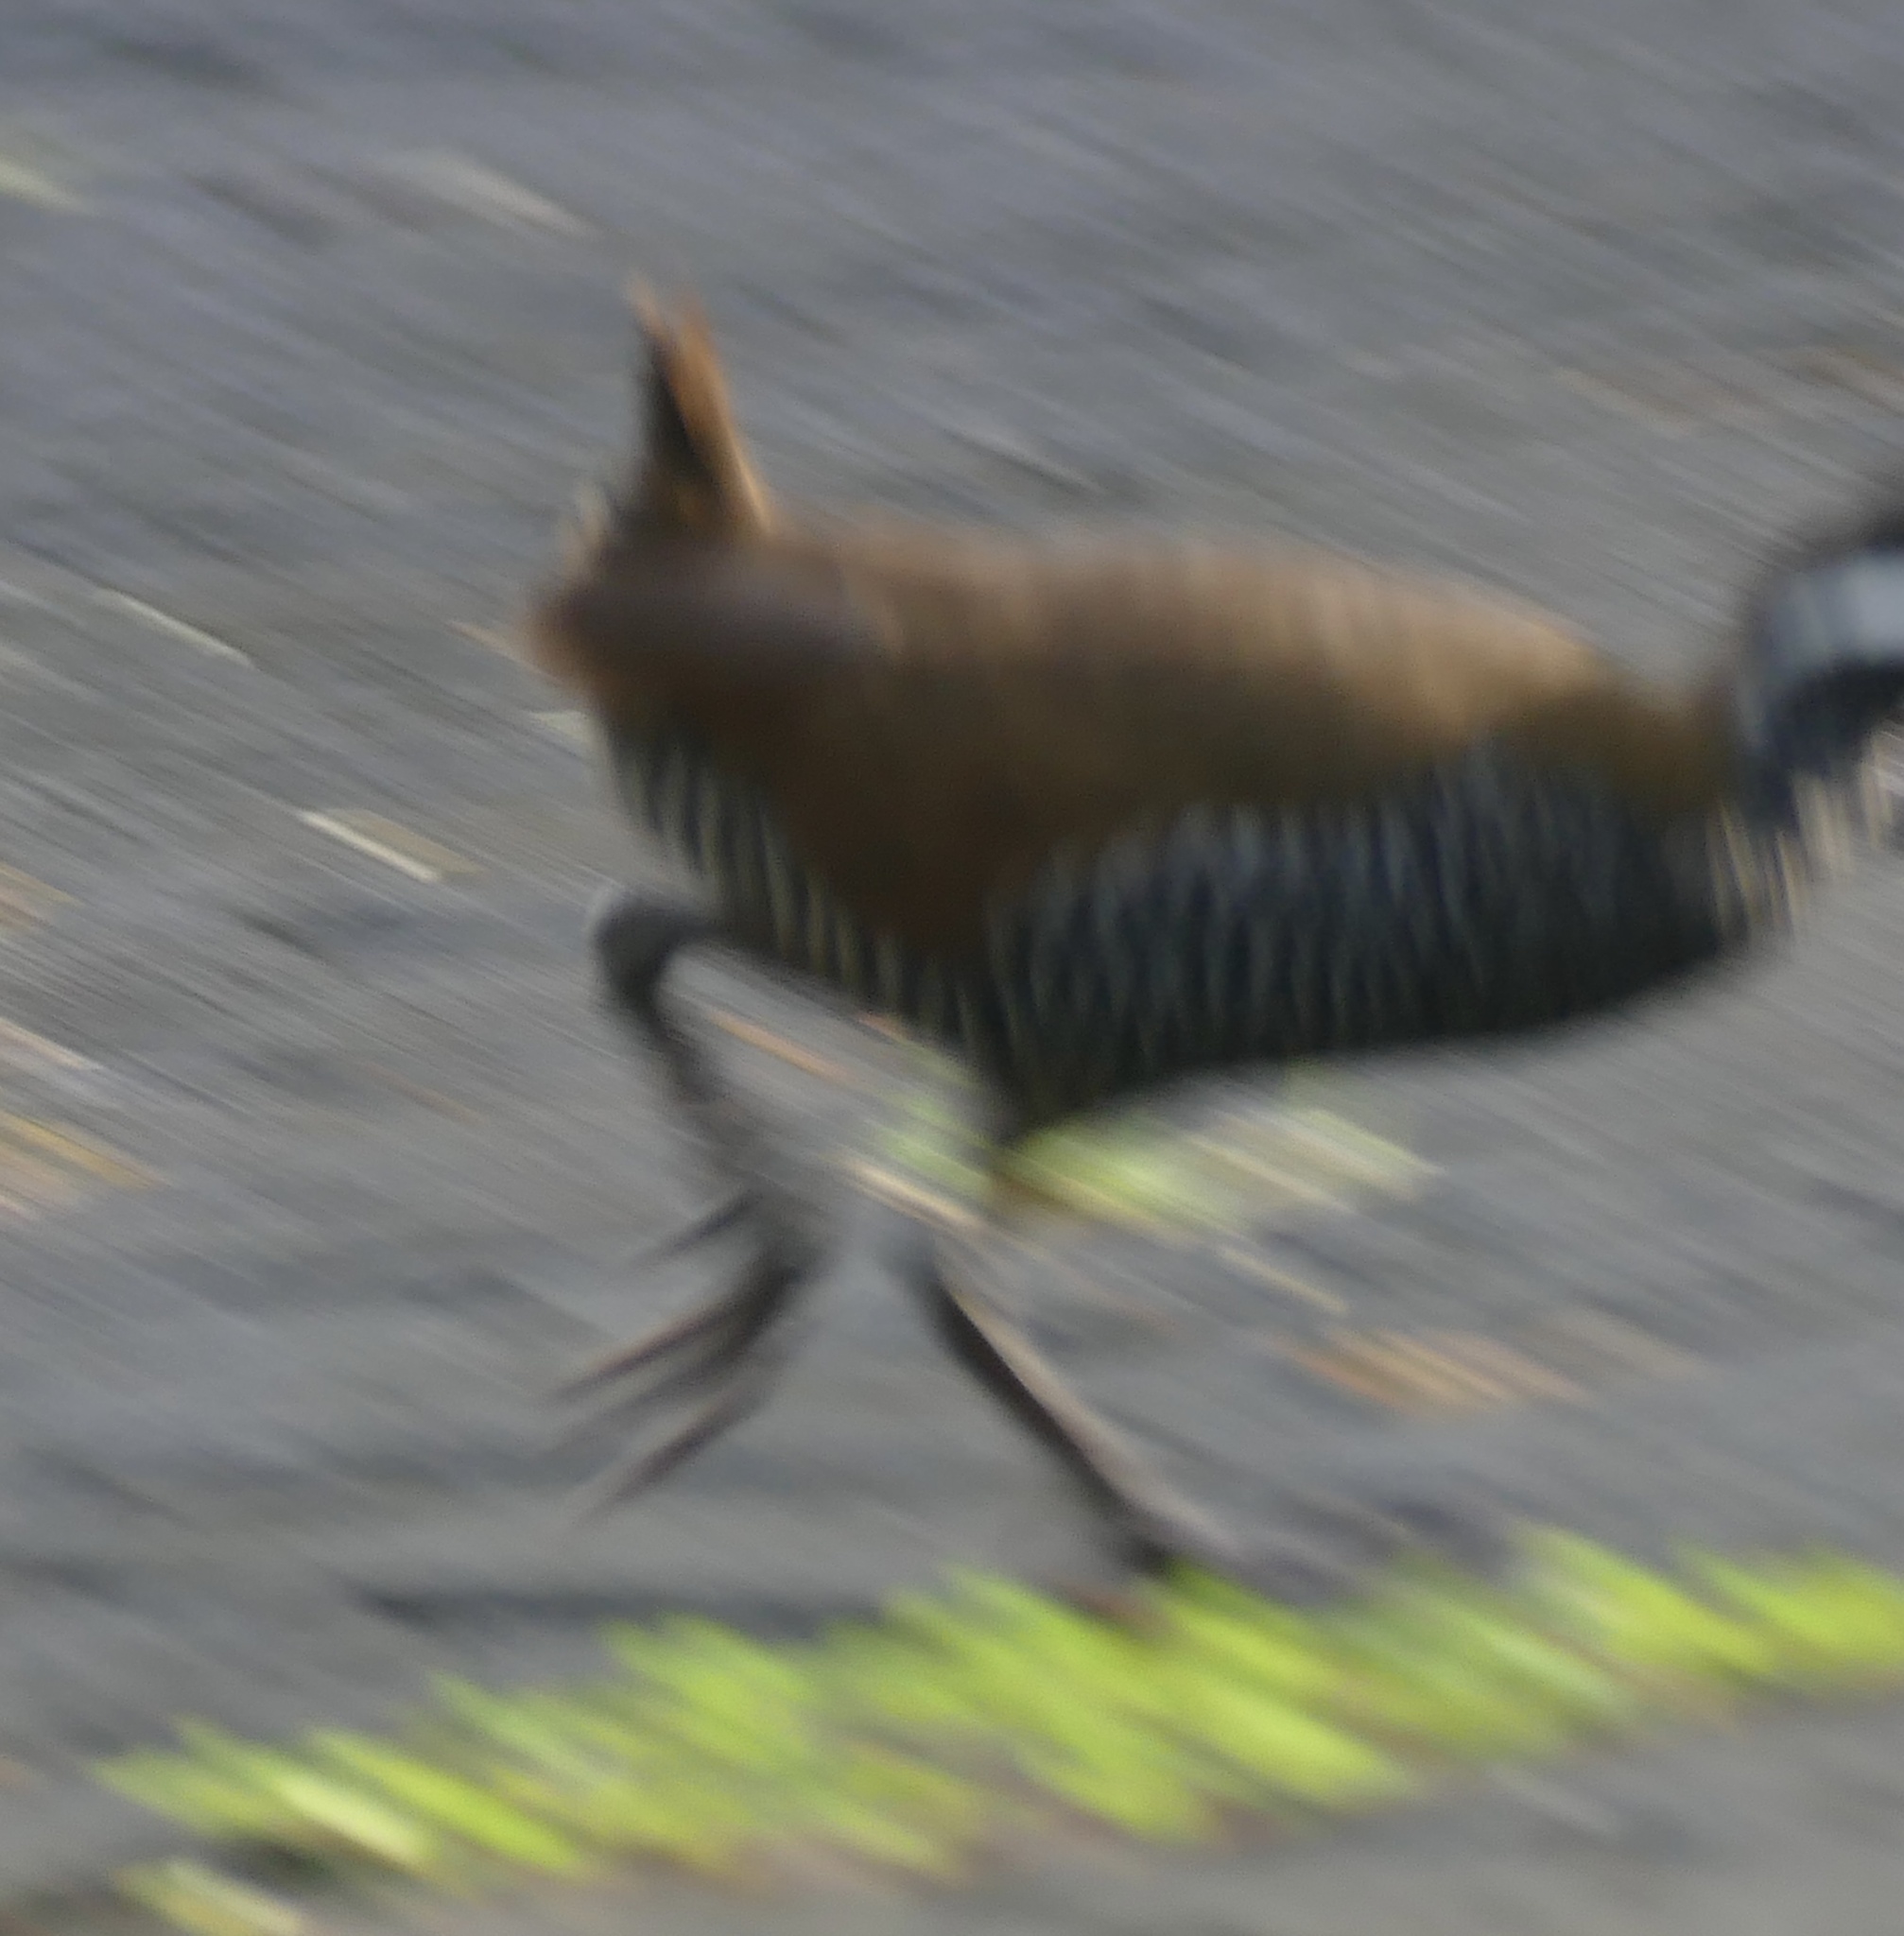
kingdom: Animalia
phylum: Chordata
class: Aves
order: Gruiformes
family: Rallidae
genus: Gallirallus
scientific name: Gallirallus torquatus
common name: Barred rail
